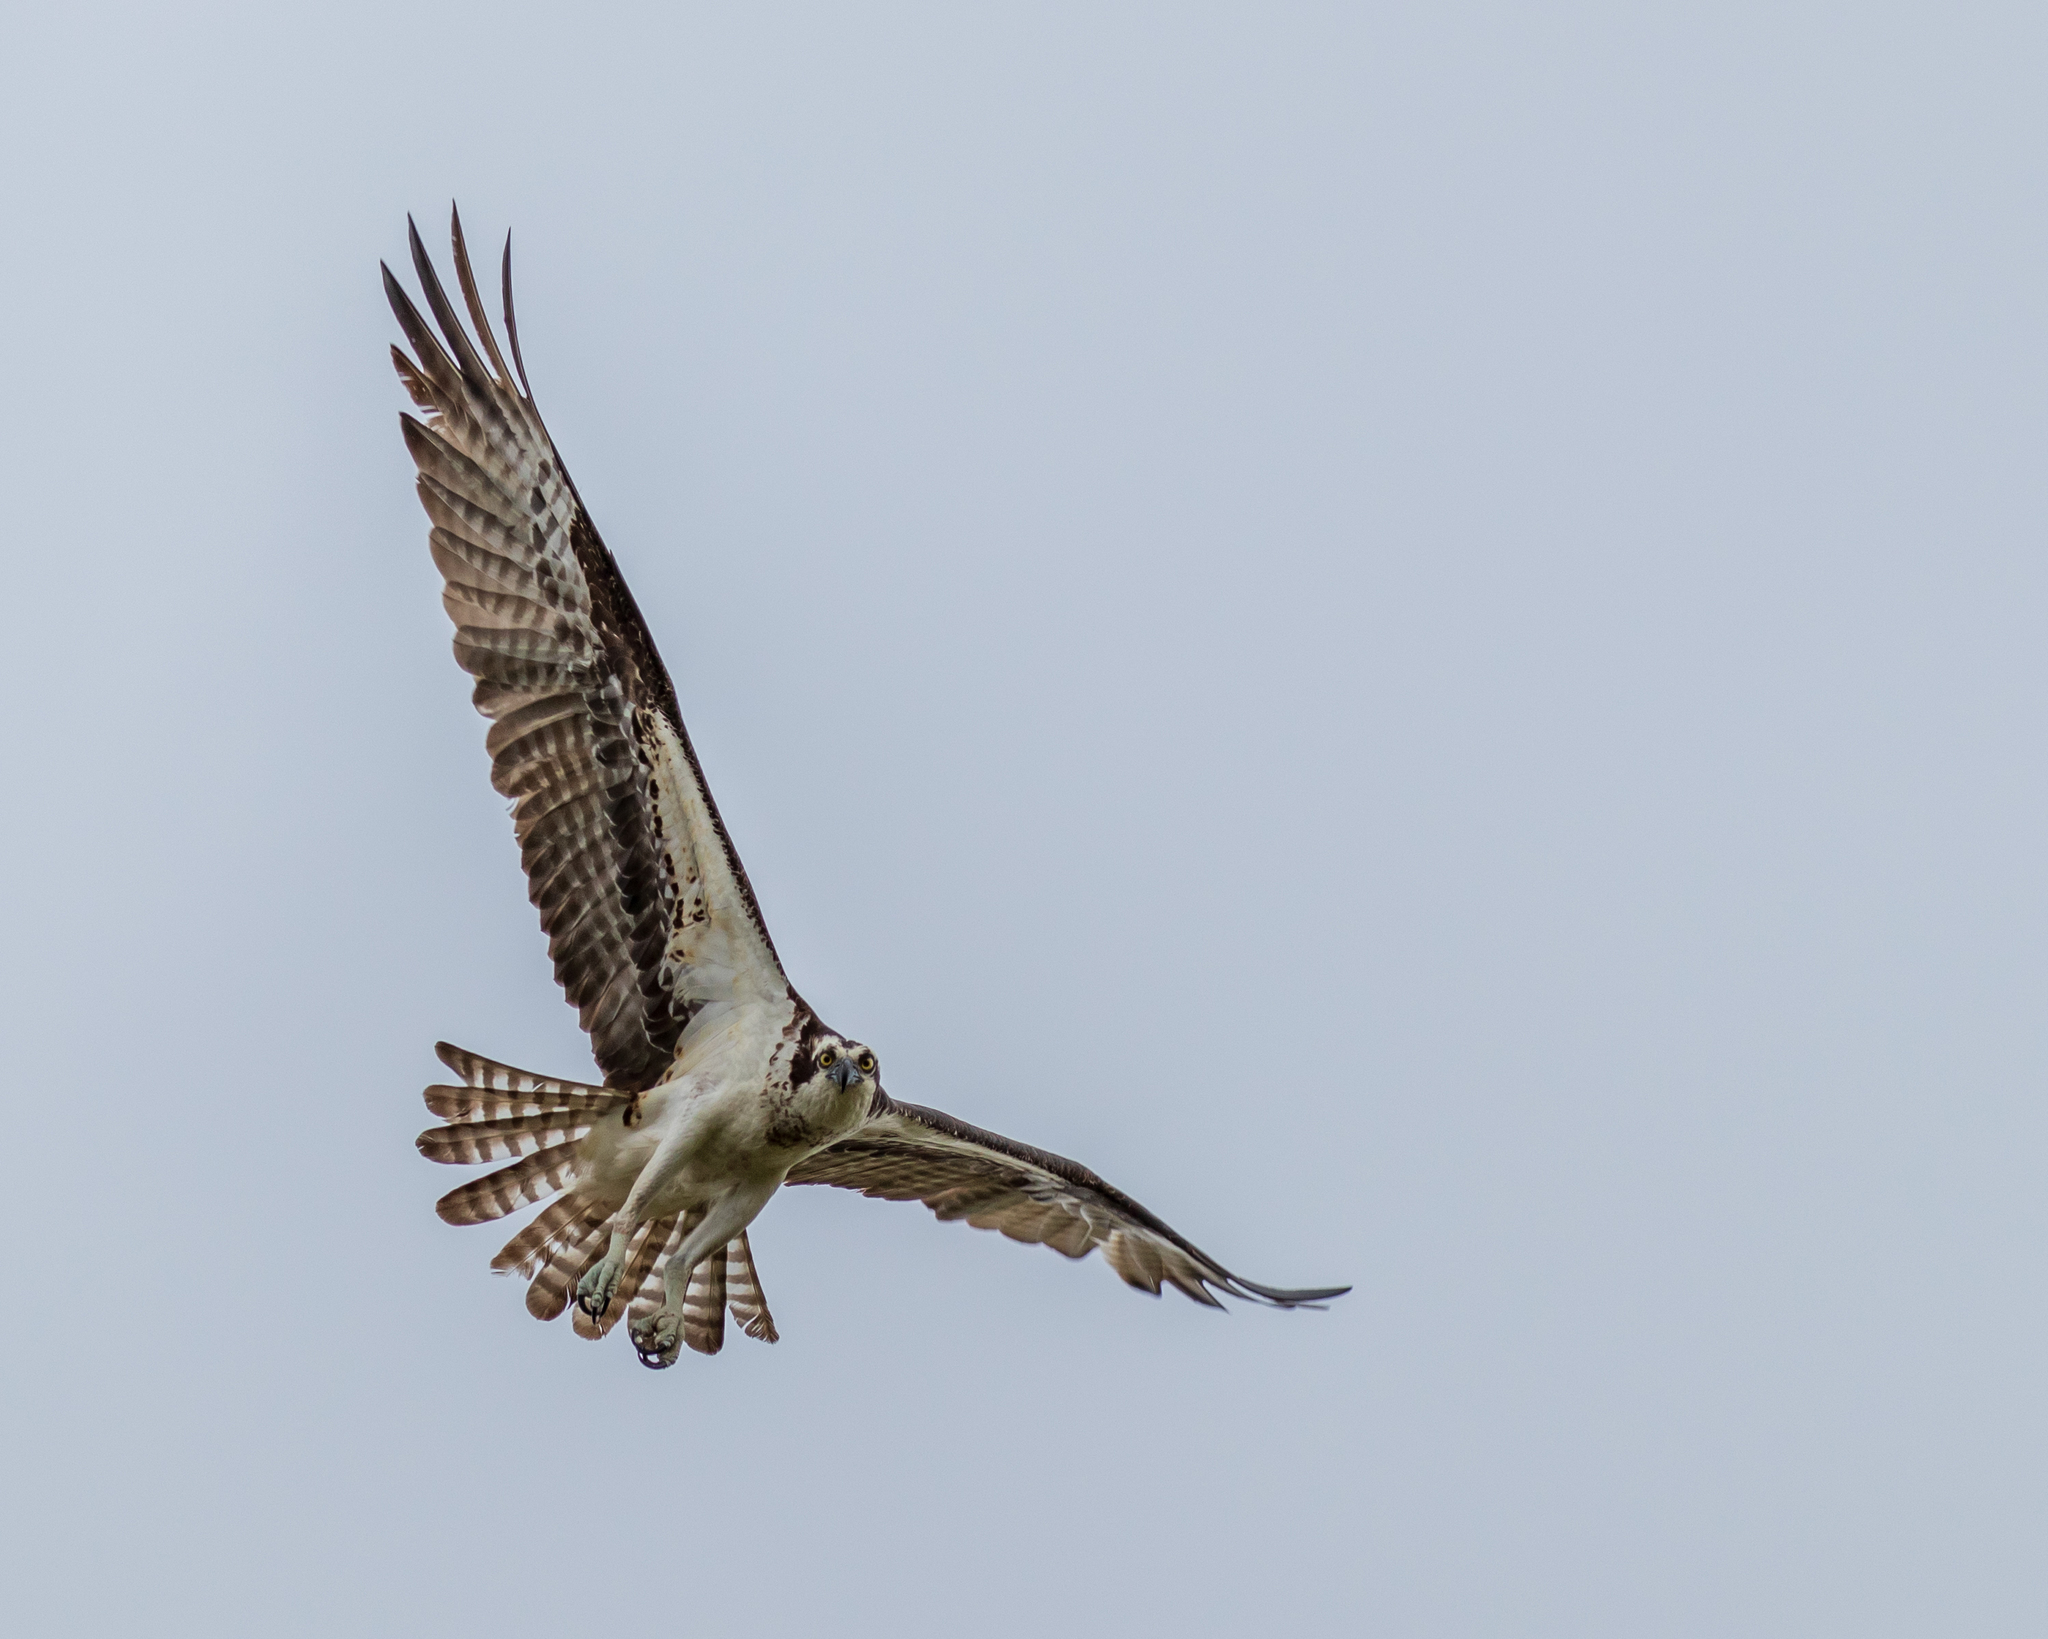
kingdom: Animalia
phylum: Chordata
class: Aves
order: Accipitriformes
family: Pandionidae
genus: Pandion
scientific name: Pandion haliaetus
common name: Osprey
